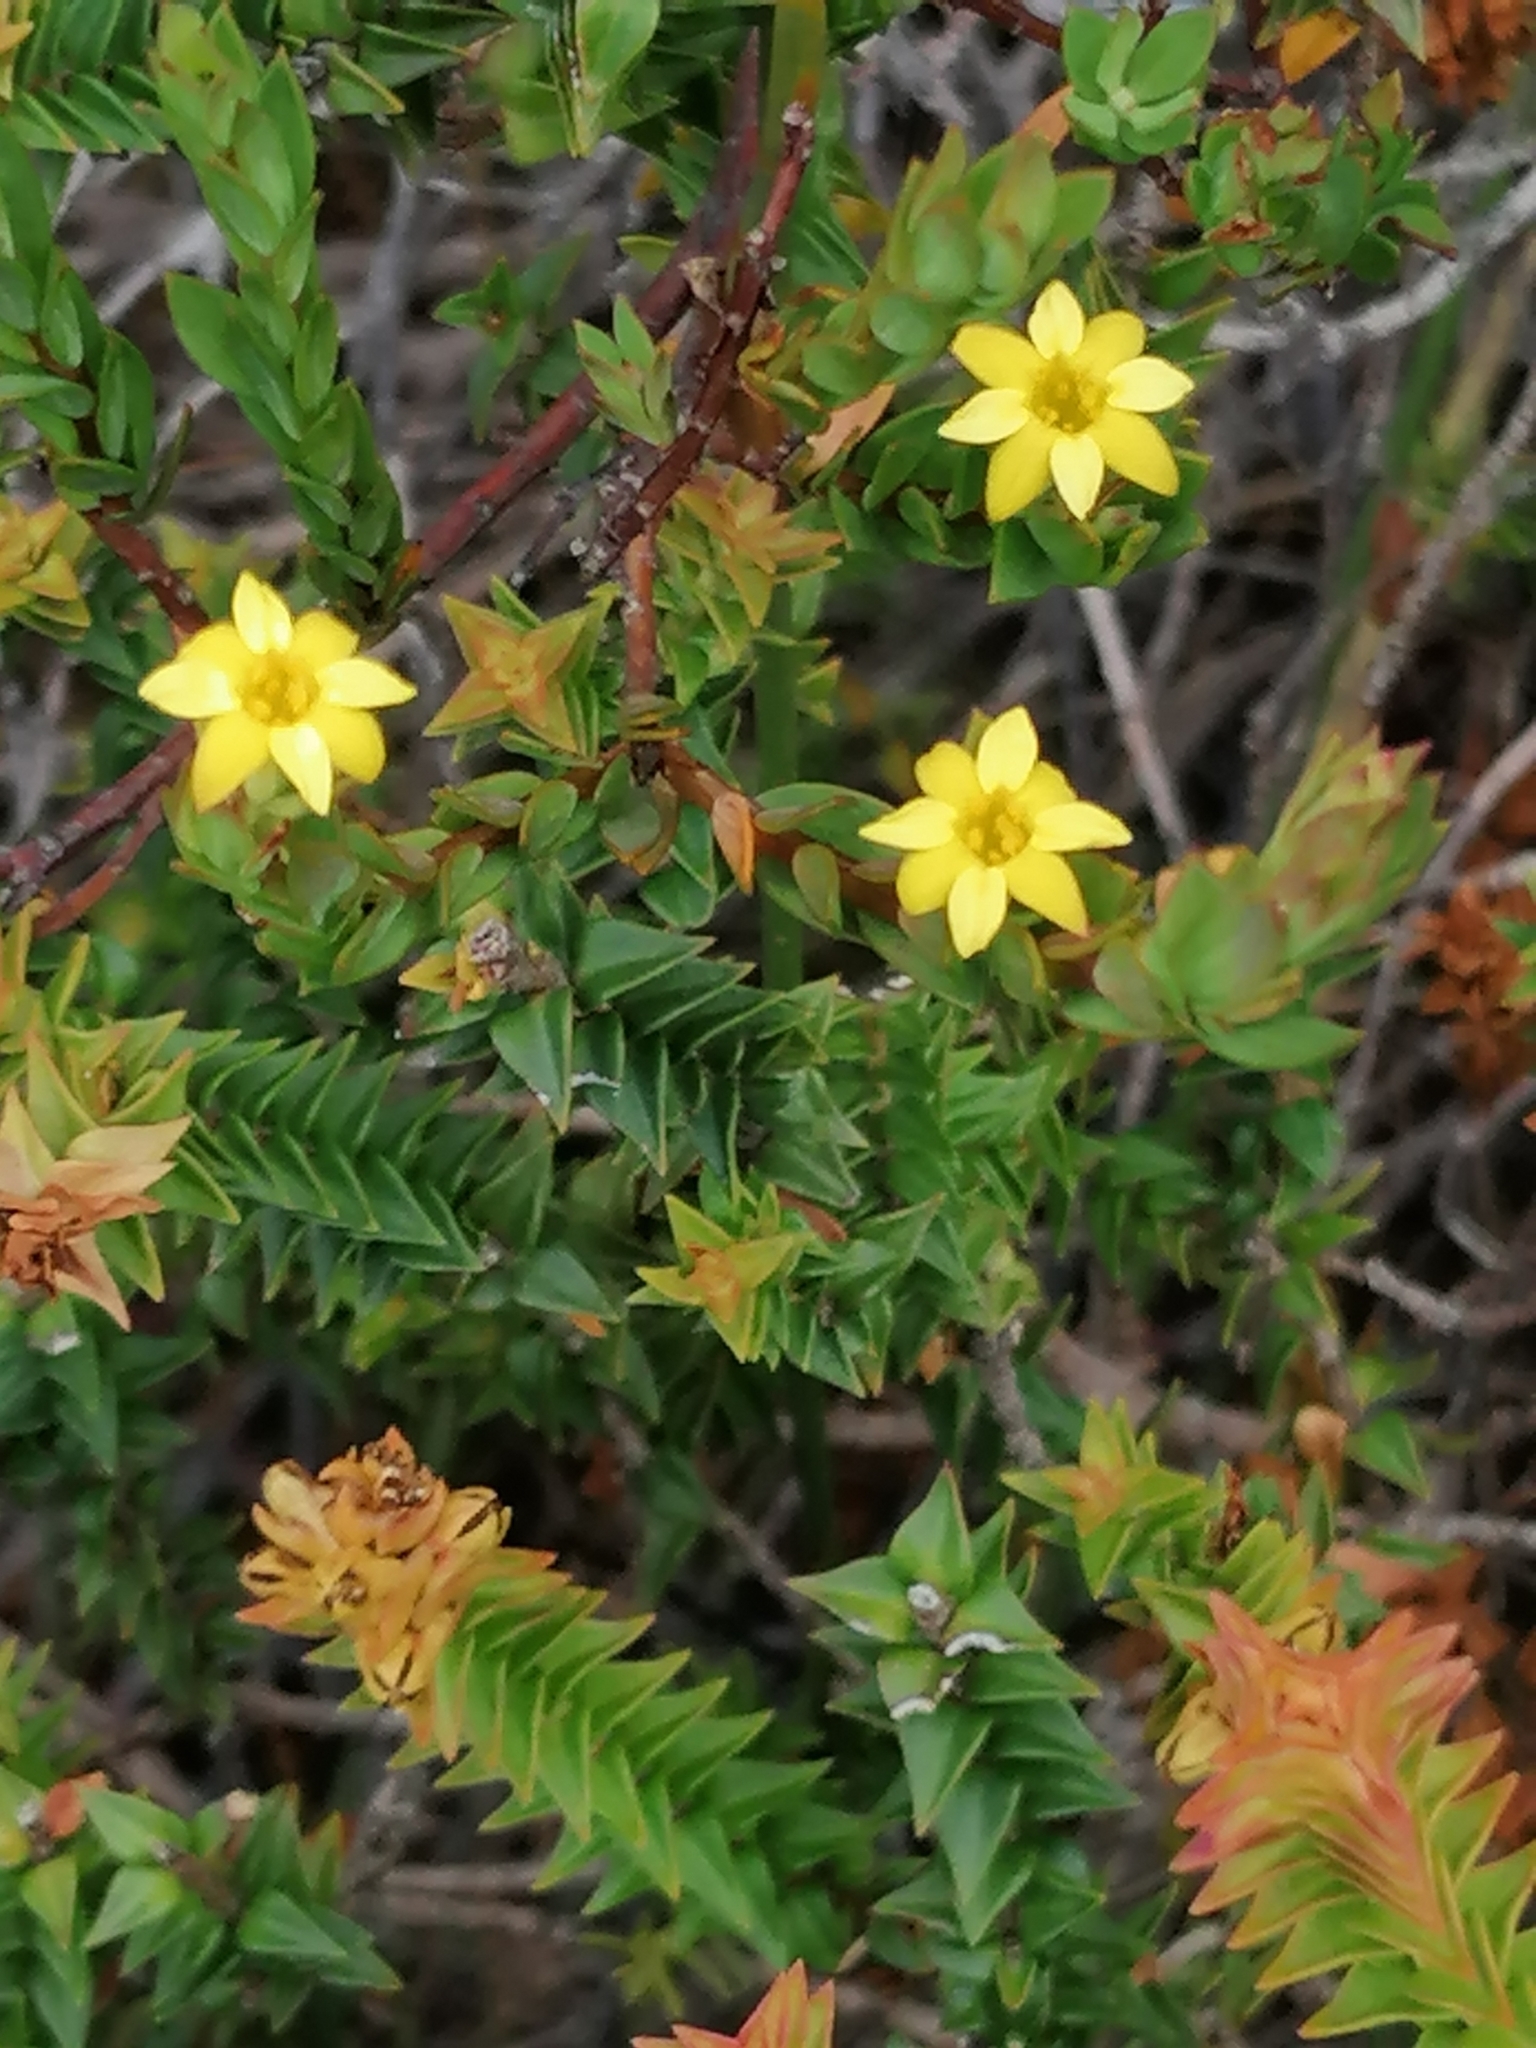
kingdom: Plantae
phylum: Tracheophyta
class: Magnoliopsida
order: Malvales
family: Thymelaeaceae
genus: Gnidia
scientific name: Gnidia juniperifolia
